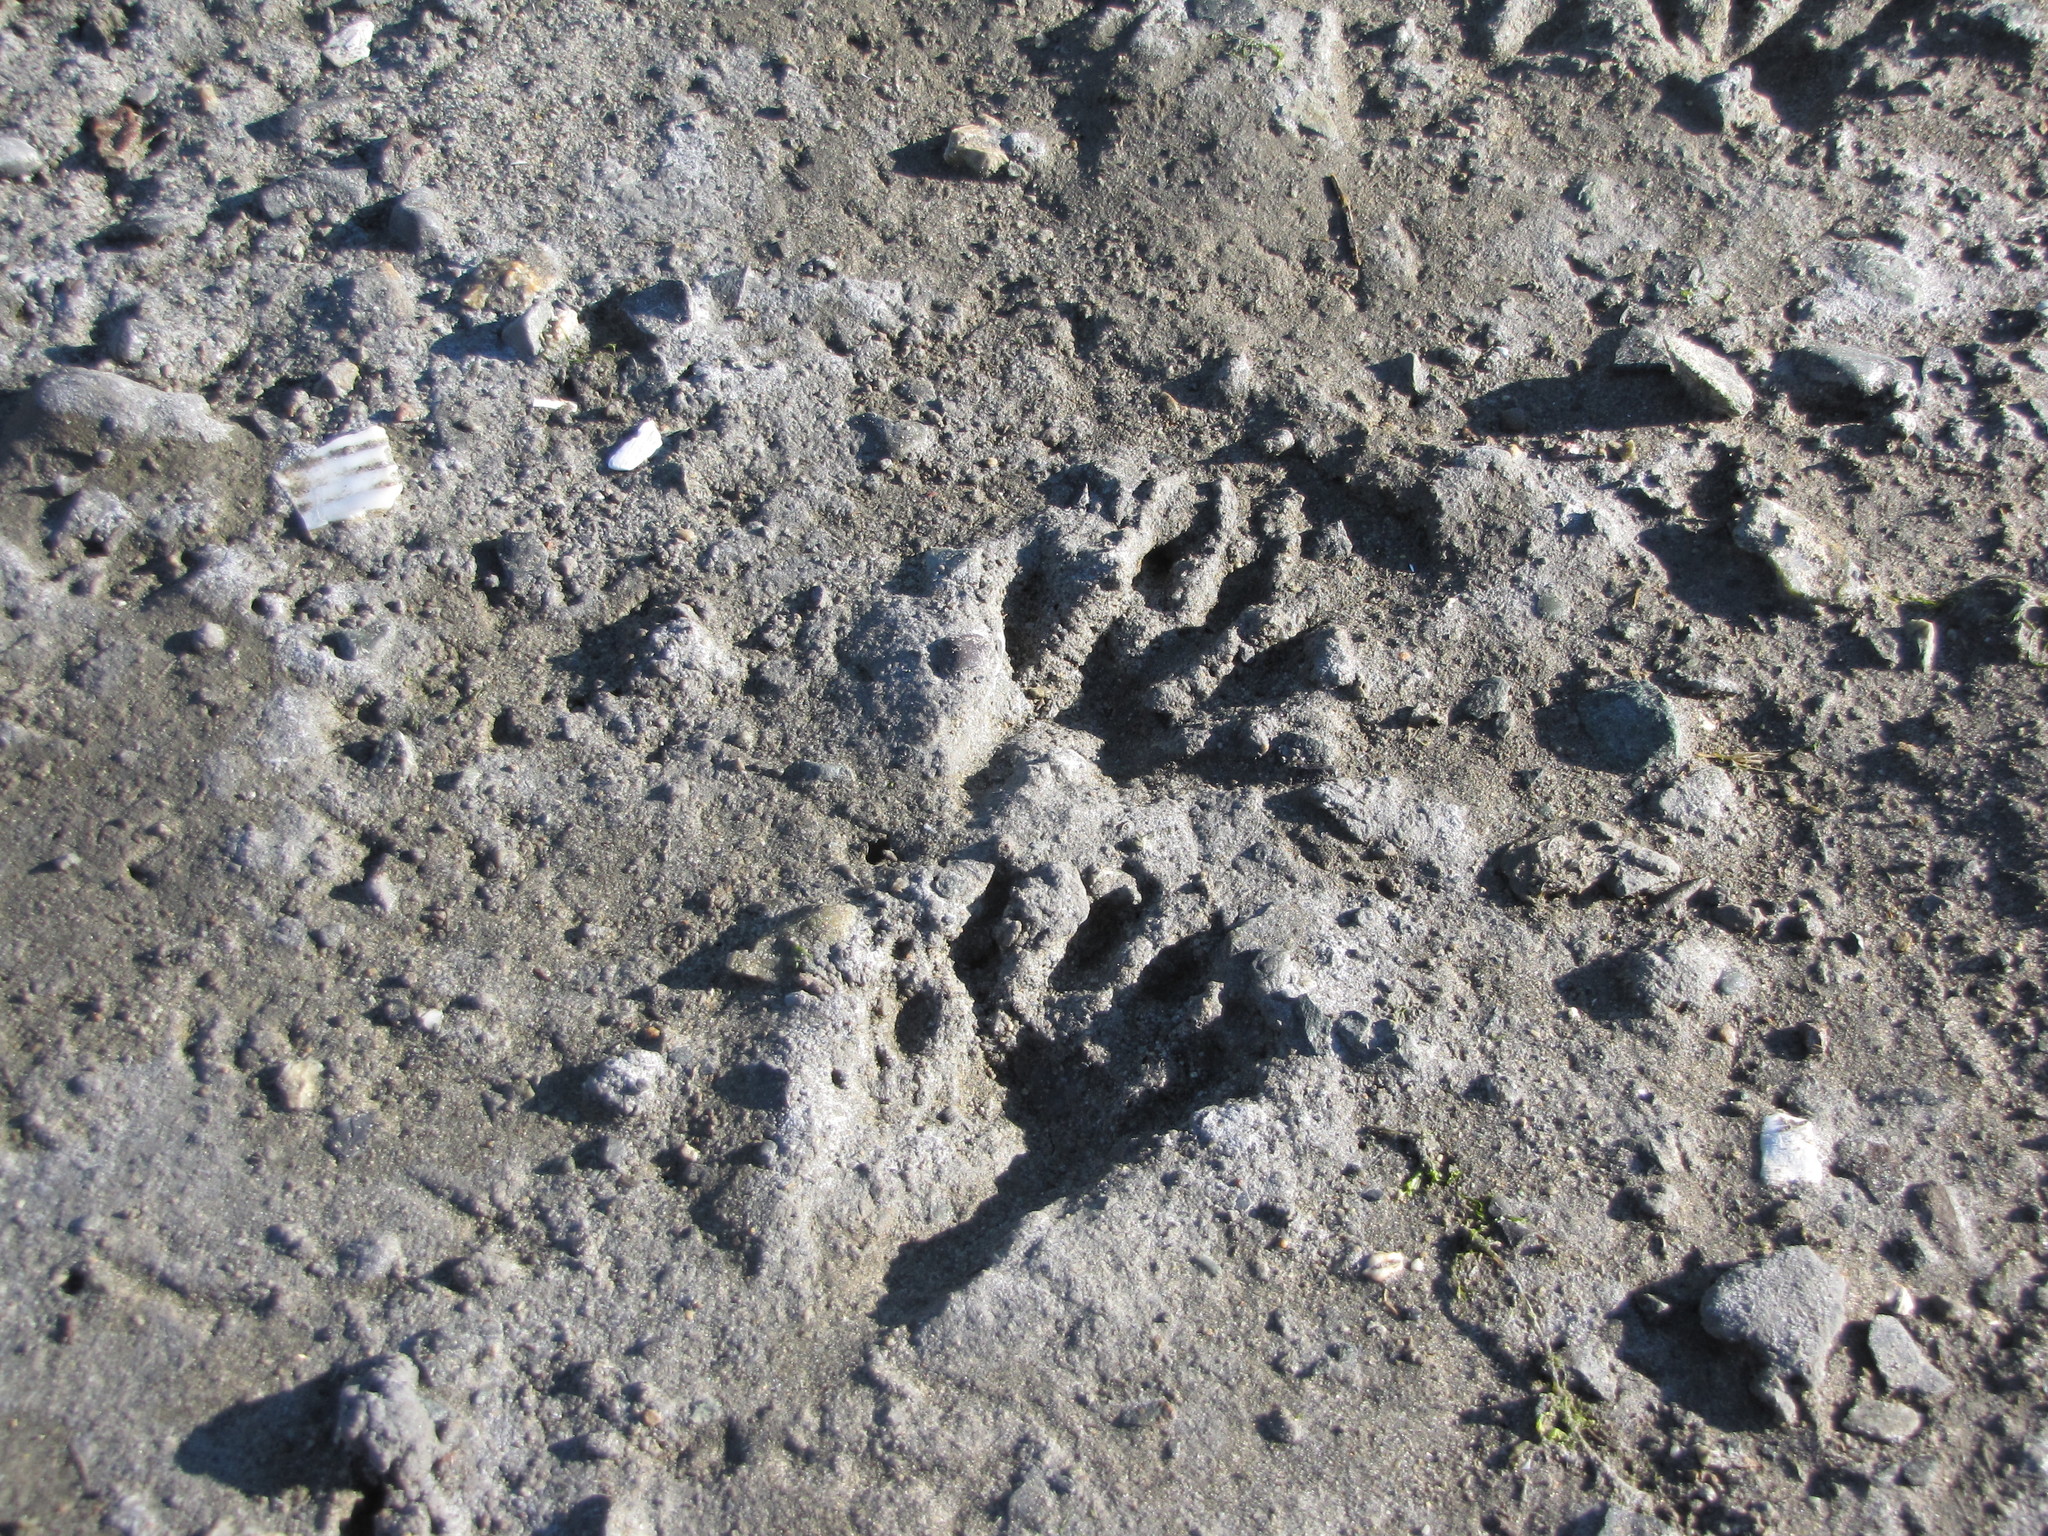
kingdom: Animalia
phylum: Chordata
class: Mammalia
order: Carnivora
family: Procyonidae
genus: Procyon
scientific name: Procyon lotor
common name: Raccoon
